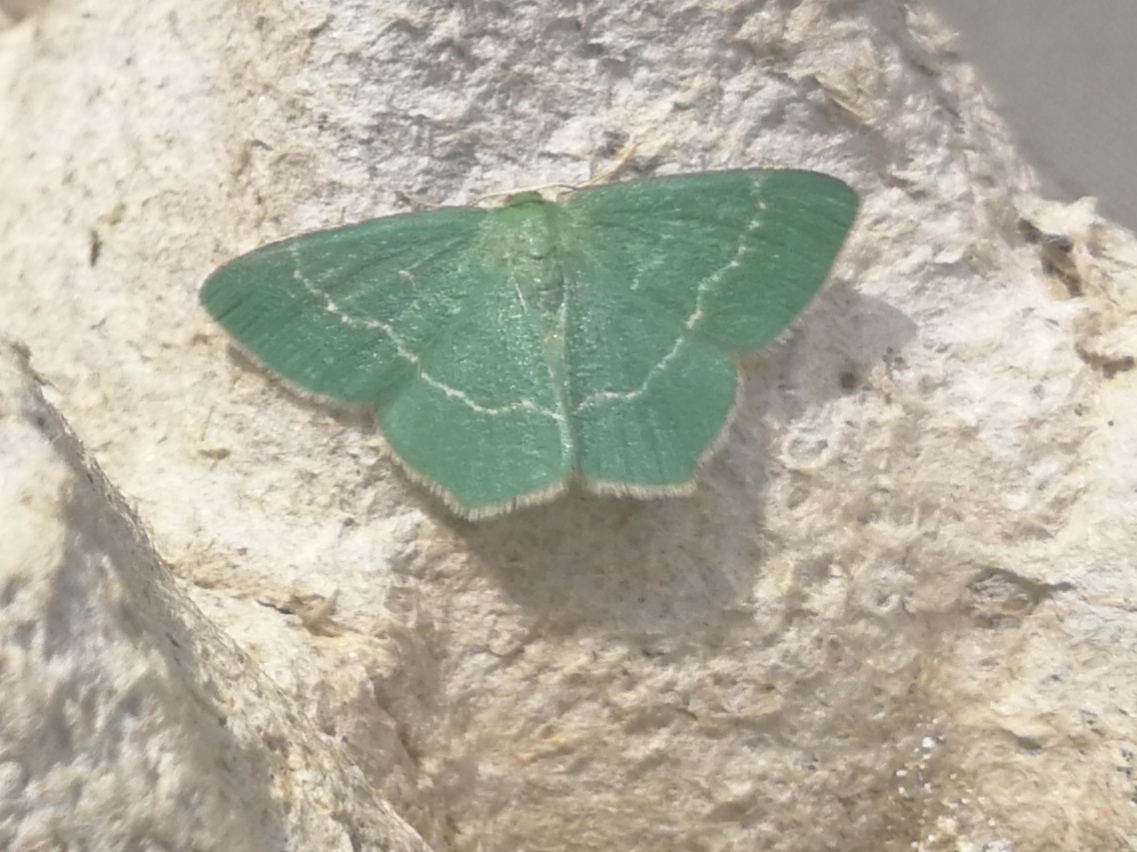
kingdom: Animalia
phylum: Arthropoda
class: Insecta
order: Lepidoptera
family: Geometridae
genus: Chlorissa
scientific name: Chlorissa cloraria
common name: Southern grass emerald
